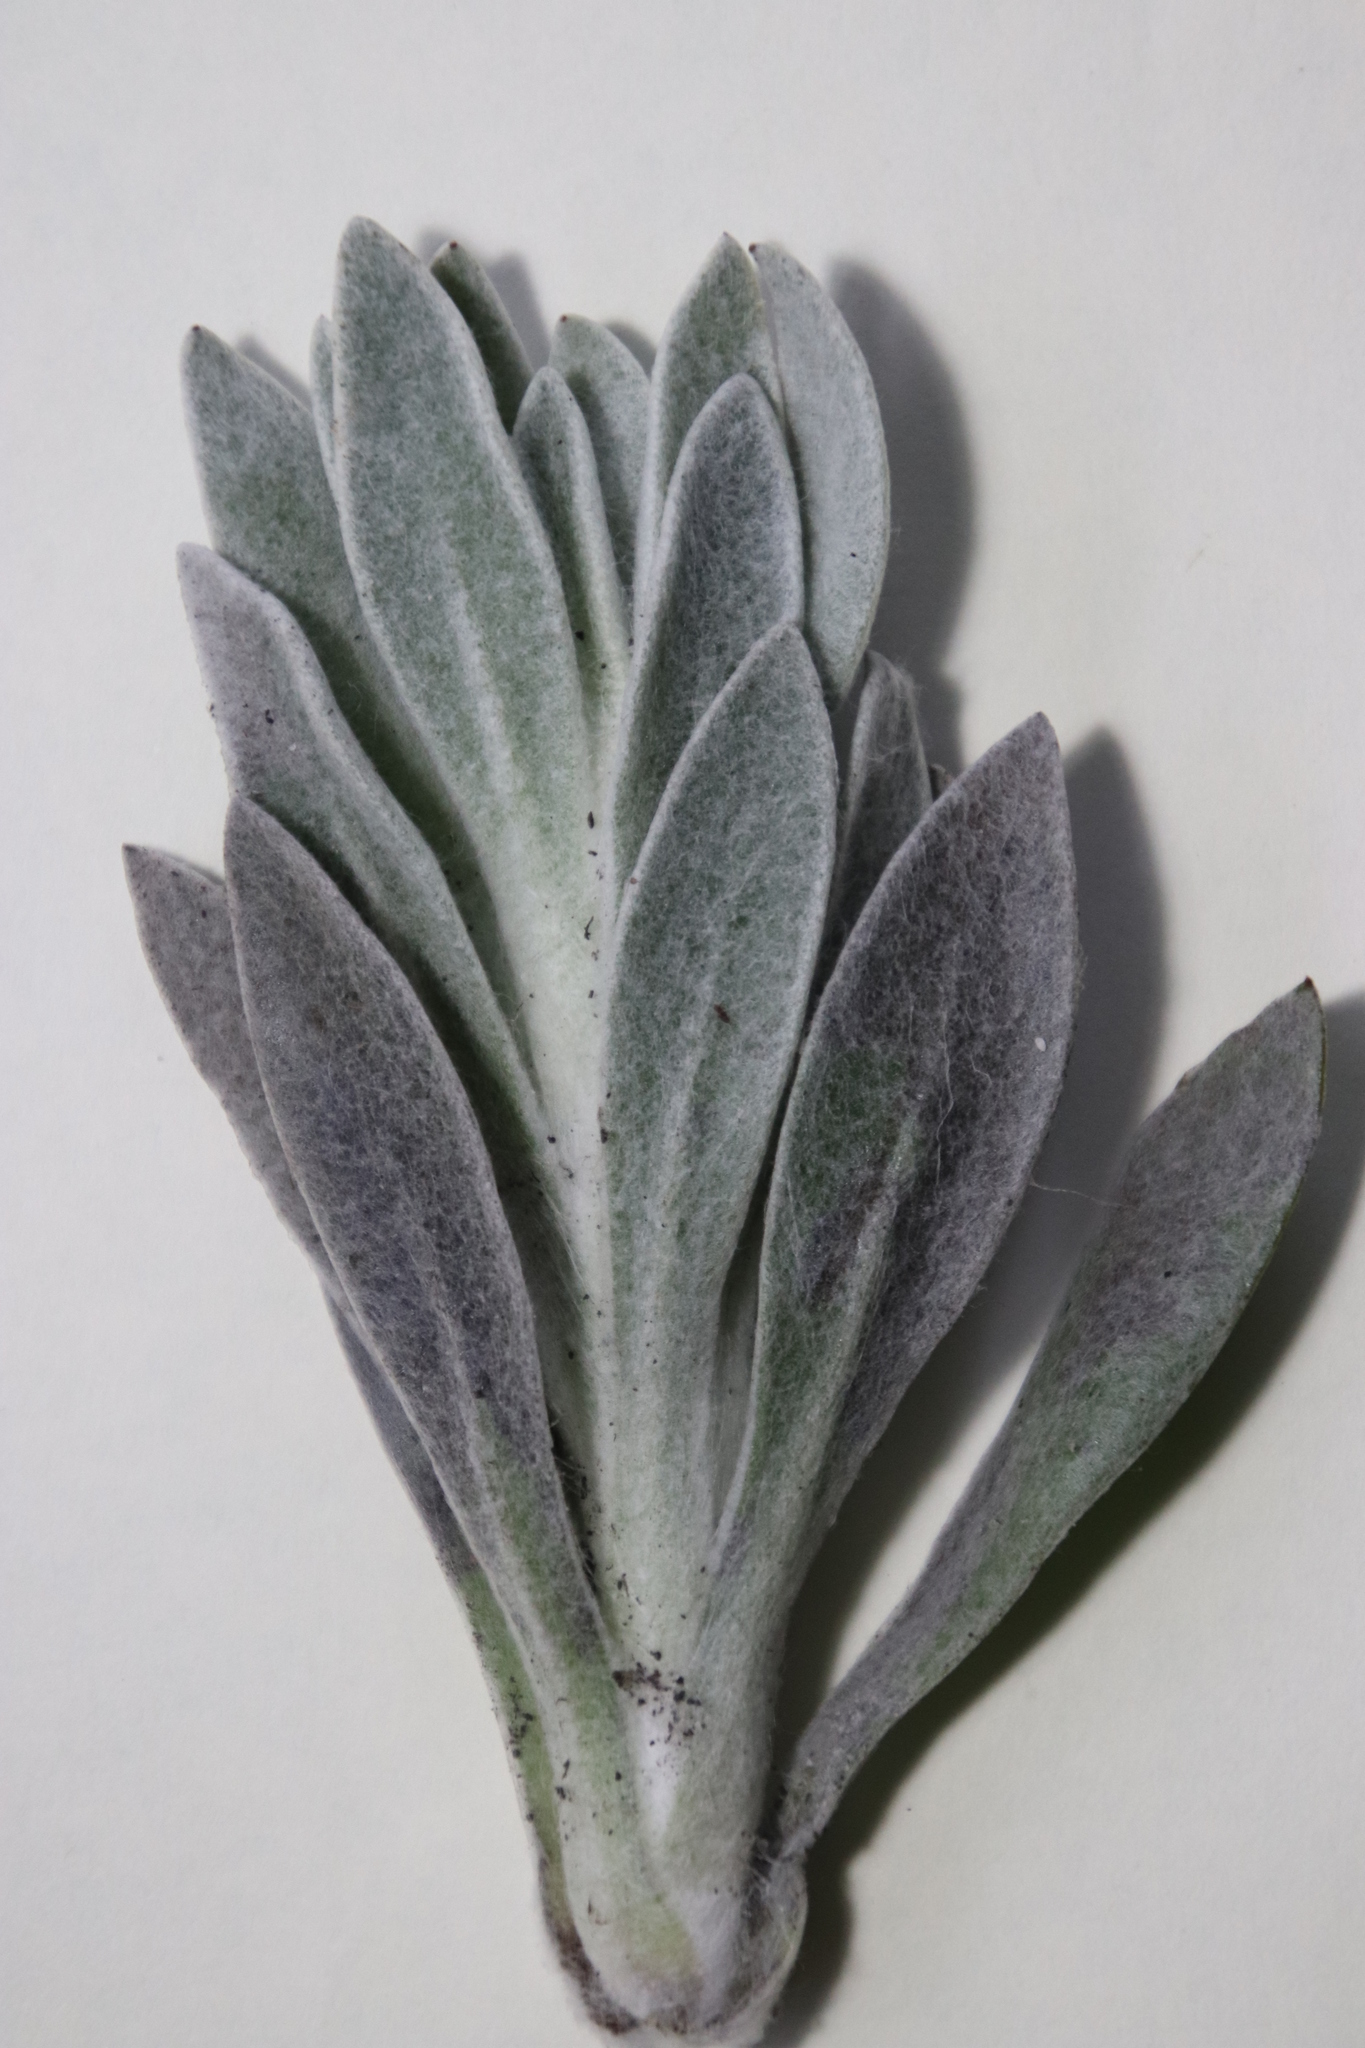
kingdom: Plantae
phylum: Tracheophyta
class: Magnoliopsida
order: Asterales
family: Asteraceae
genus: Syncarpha
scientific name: Syncarpha vestita
